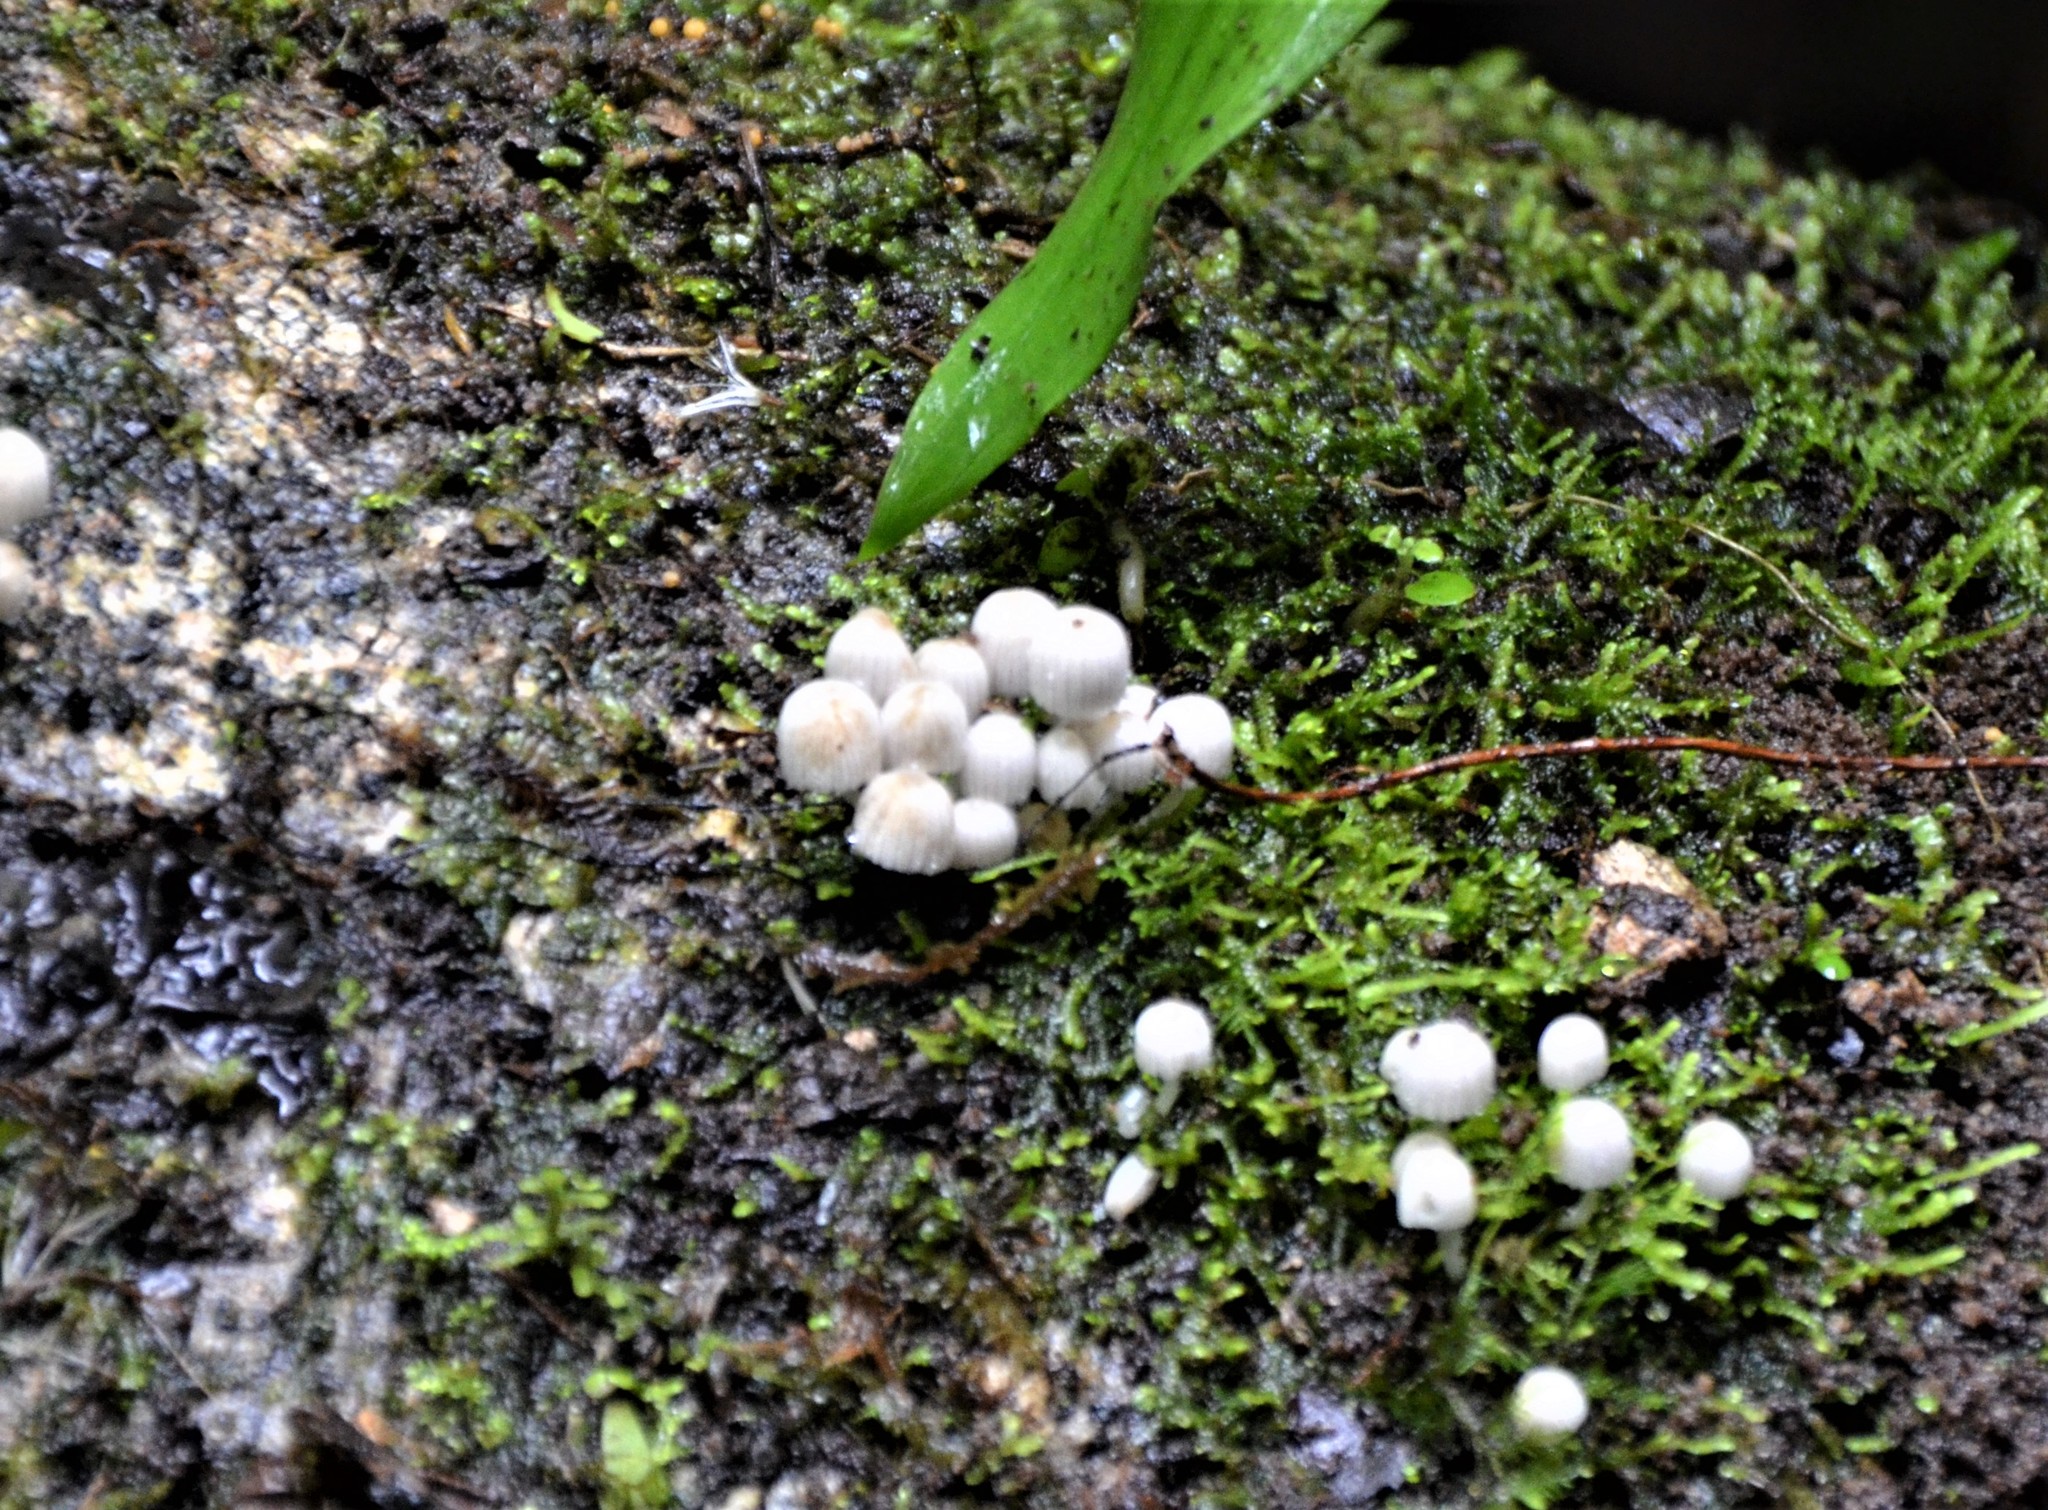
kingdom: Fungi
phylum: Basidiomycota
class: Agaricomycetes
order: Agaricales
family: Psathyrellaceae
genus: Coprinellus
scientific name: Coprinellus disseminatus
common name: Fairies' bonnets
